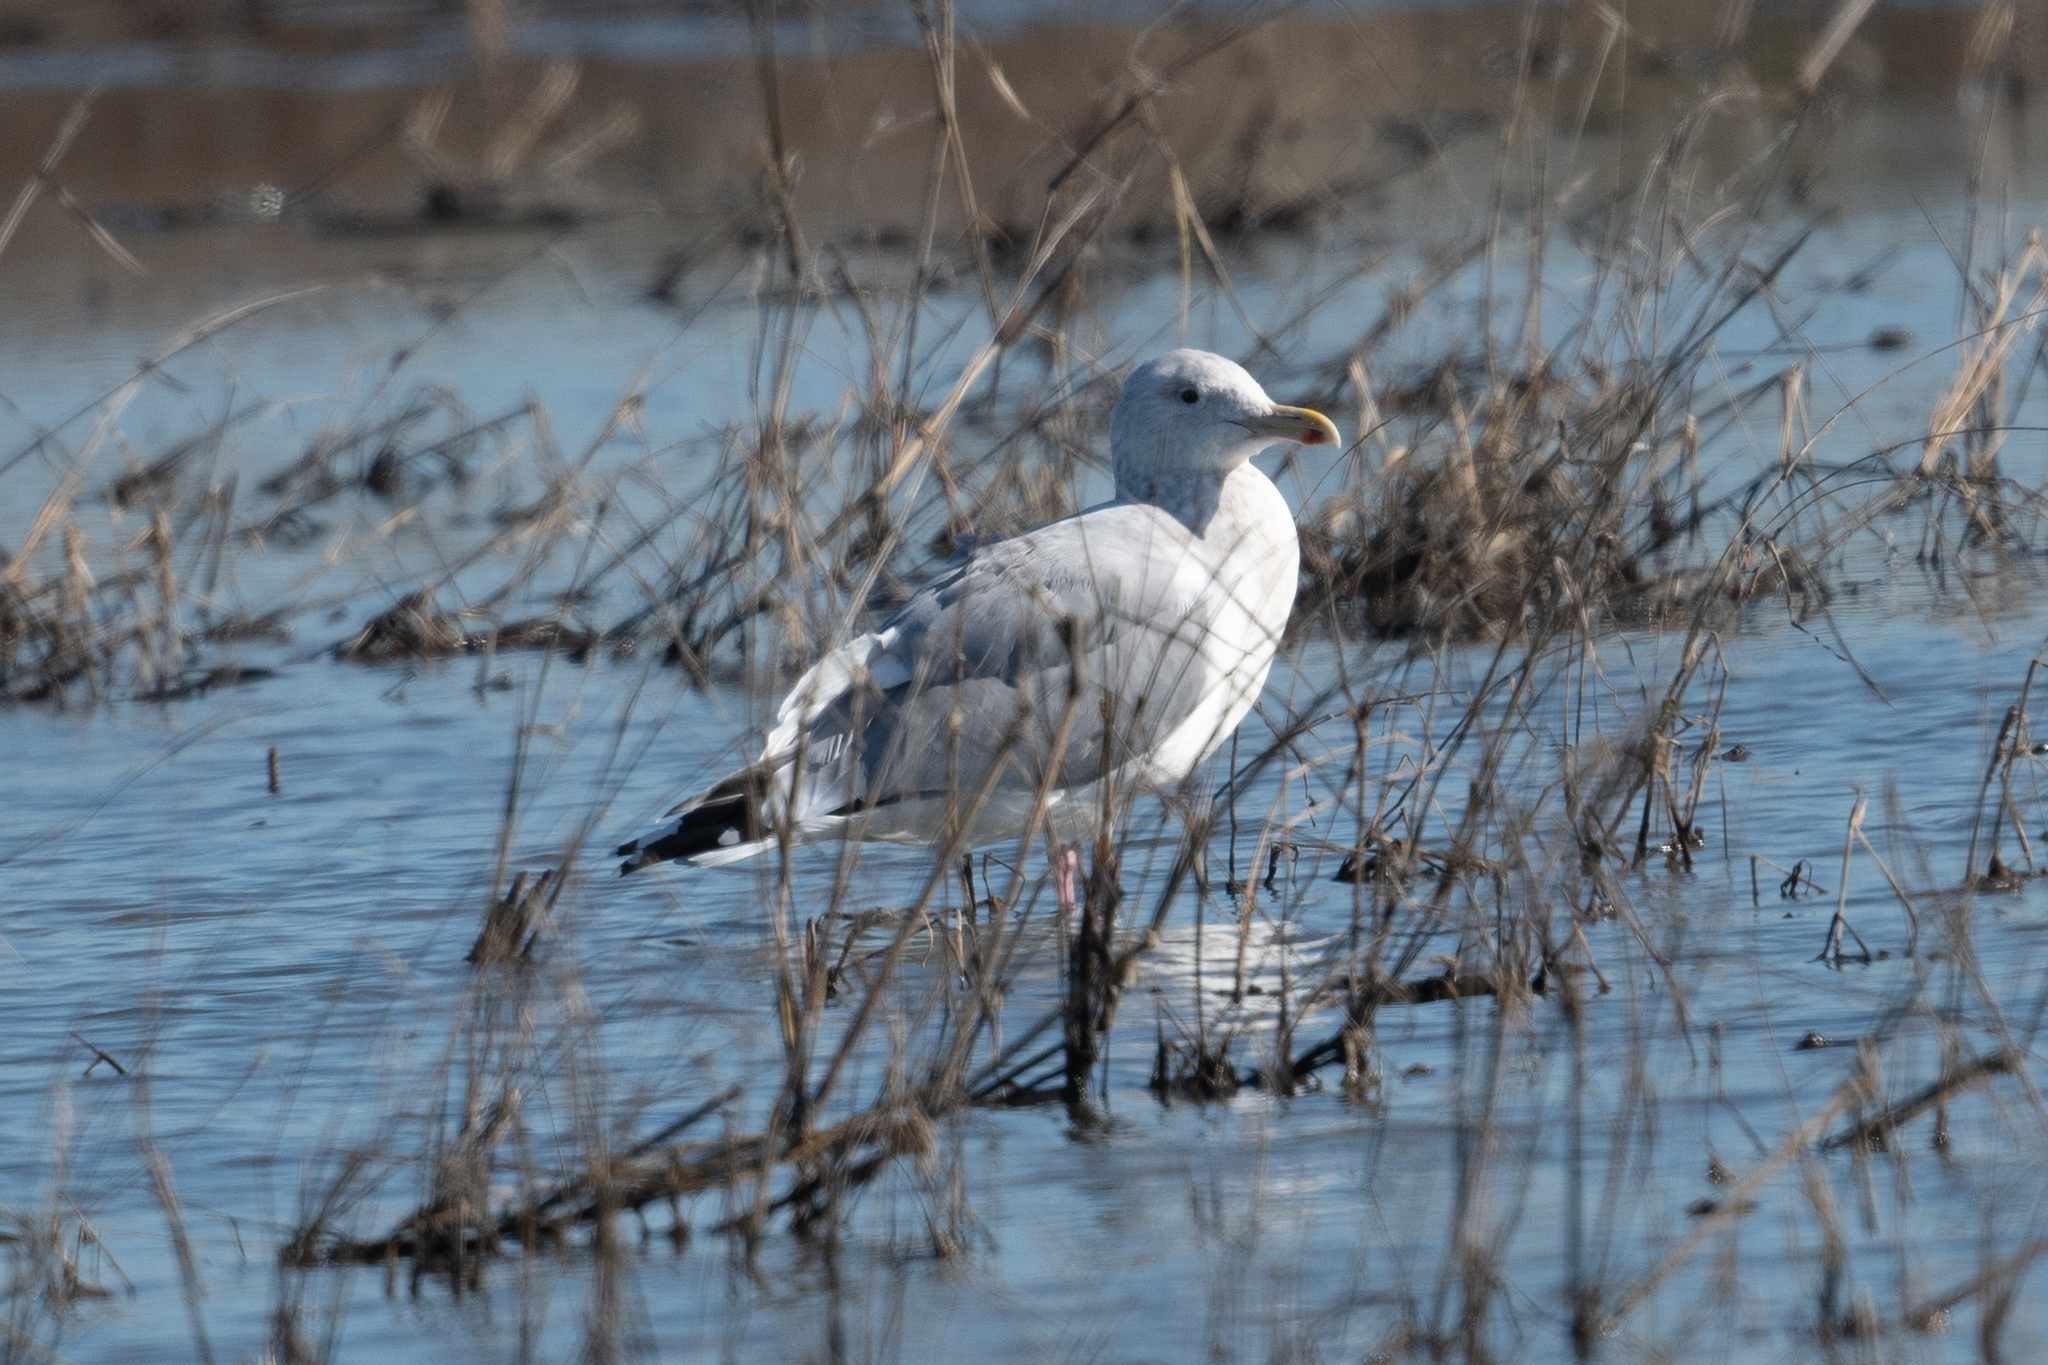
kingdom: Animalia
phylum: Chordata
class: Aves
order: Charadriiformes
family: Laridae
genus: Larus
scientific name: Larus californicus
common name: California gull
